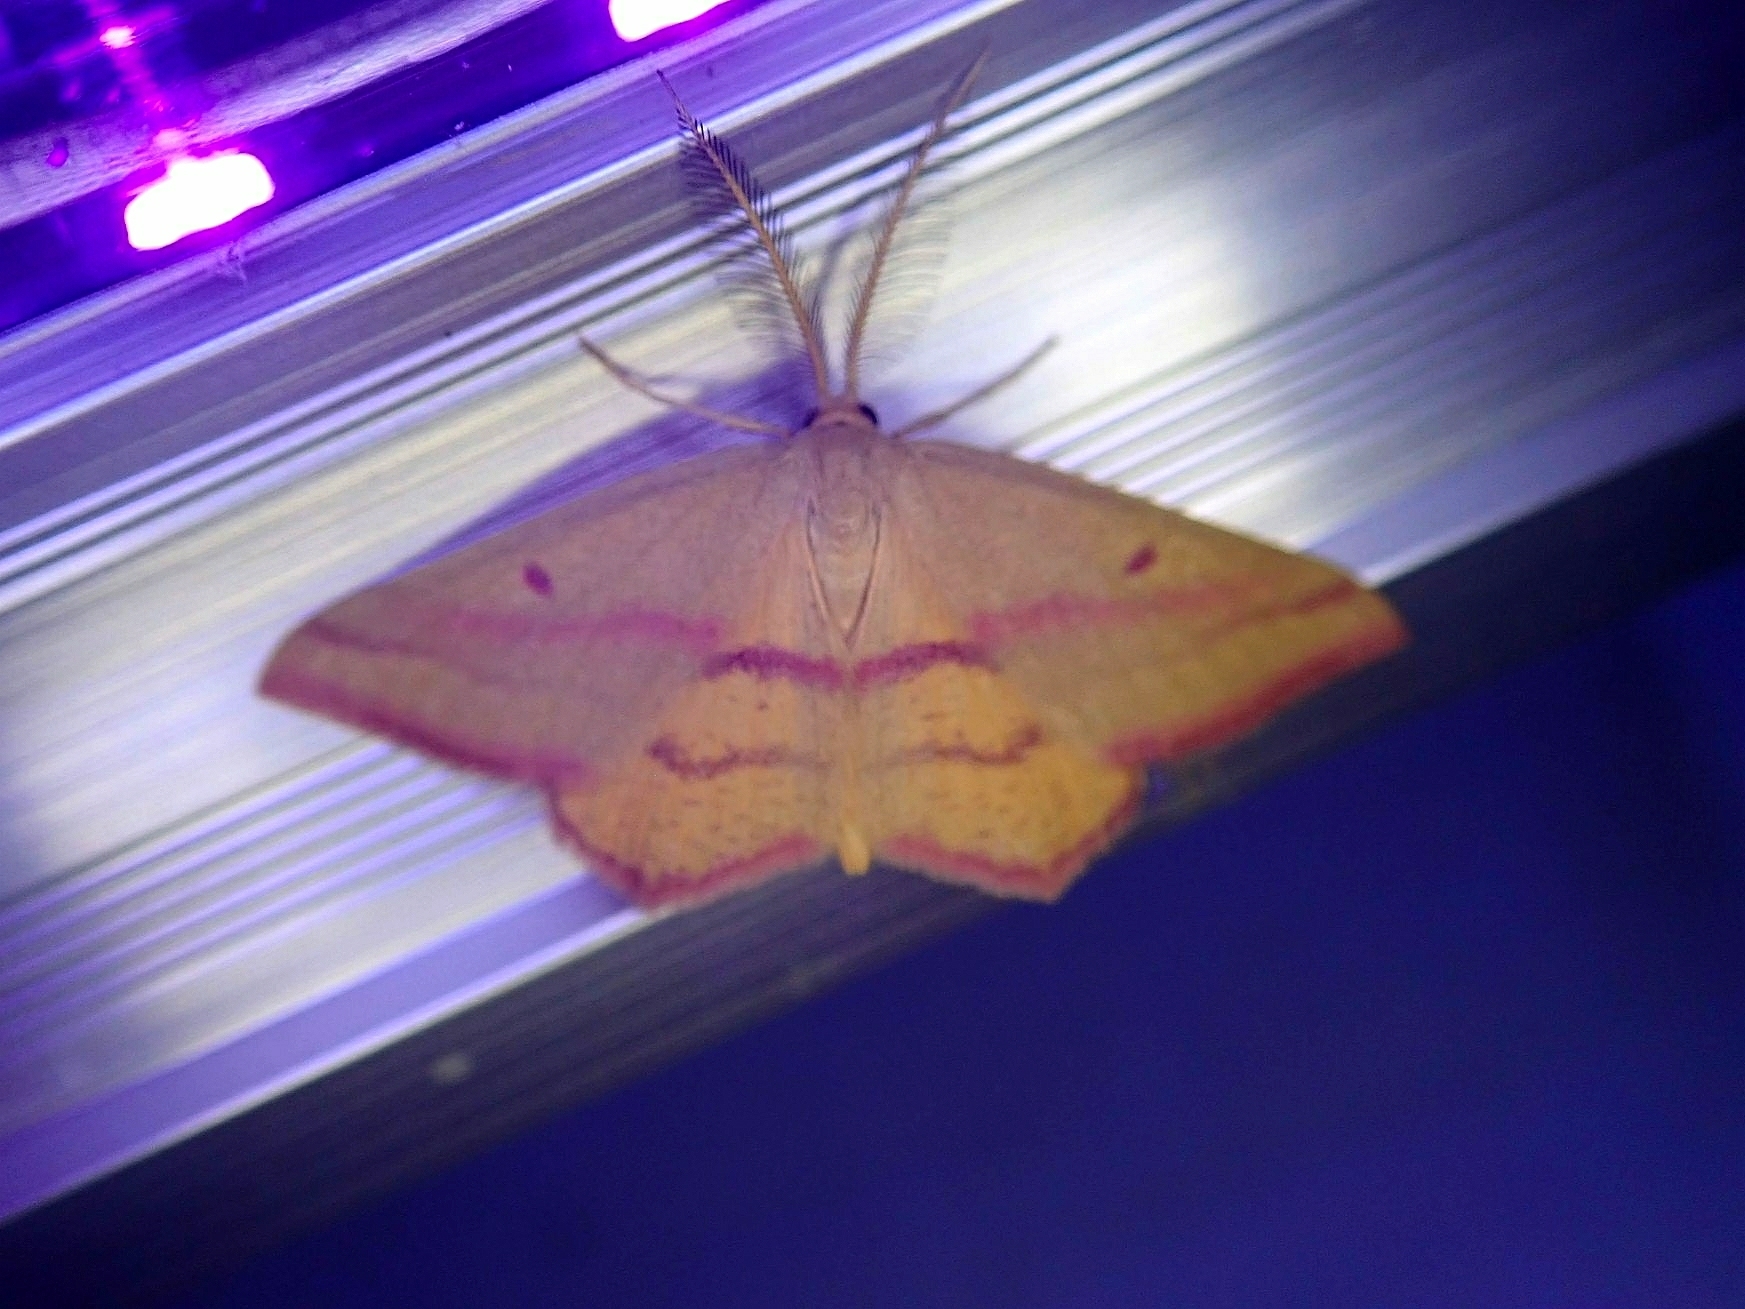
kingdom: Animalia
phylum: Arthropoda
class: Insecta
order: Lepidoptera
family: Geometridae
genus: Haematopis
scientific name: Haematopis grataria
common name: Chickweed geometer
